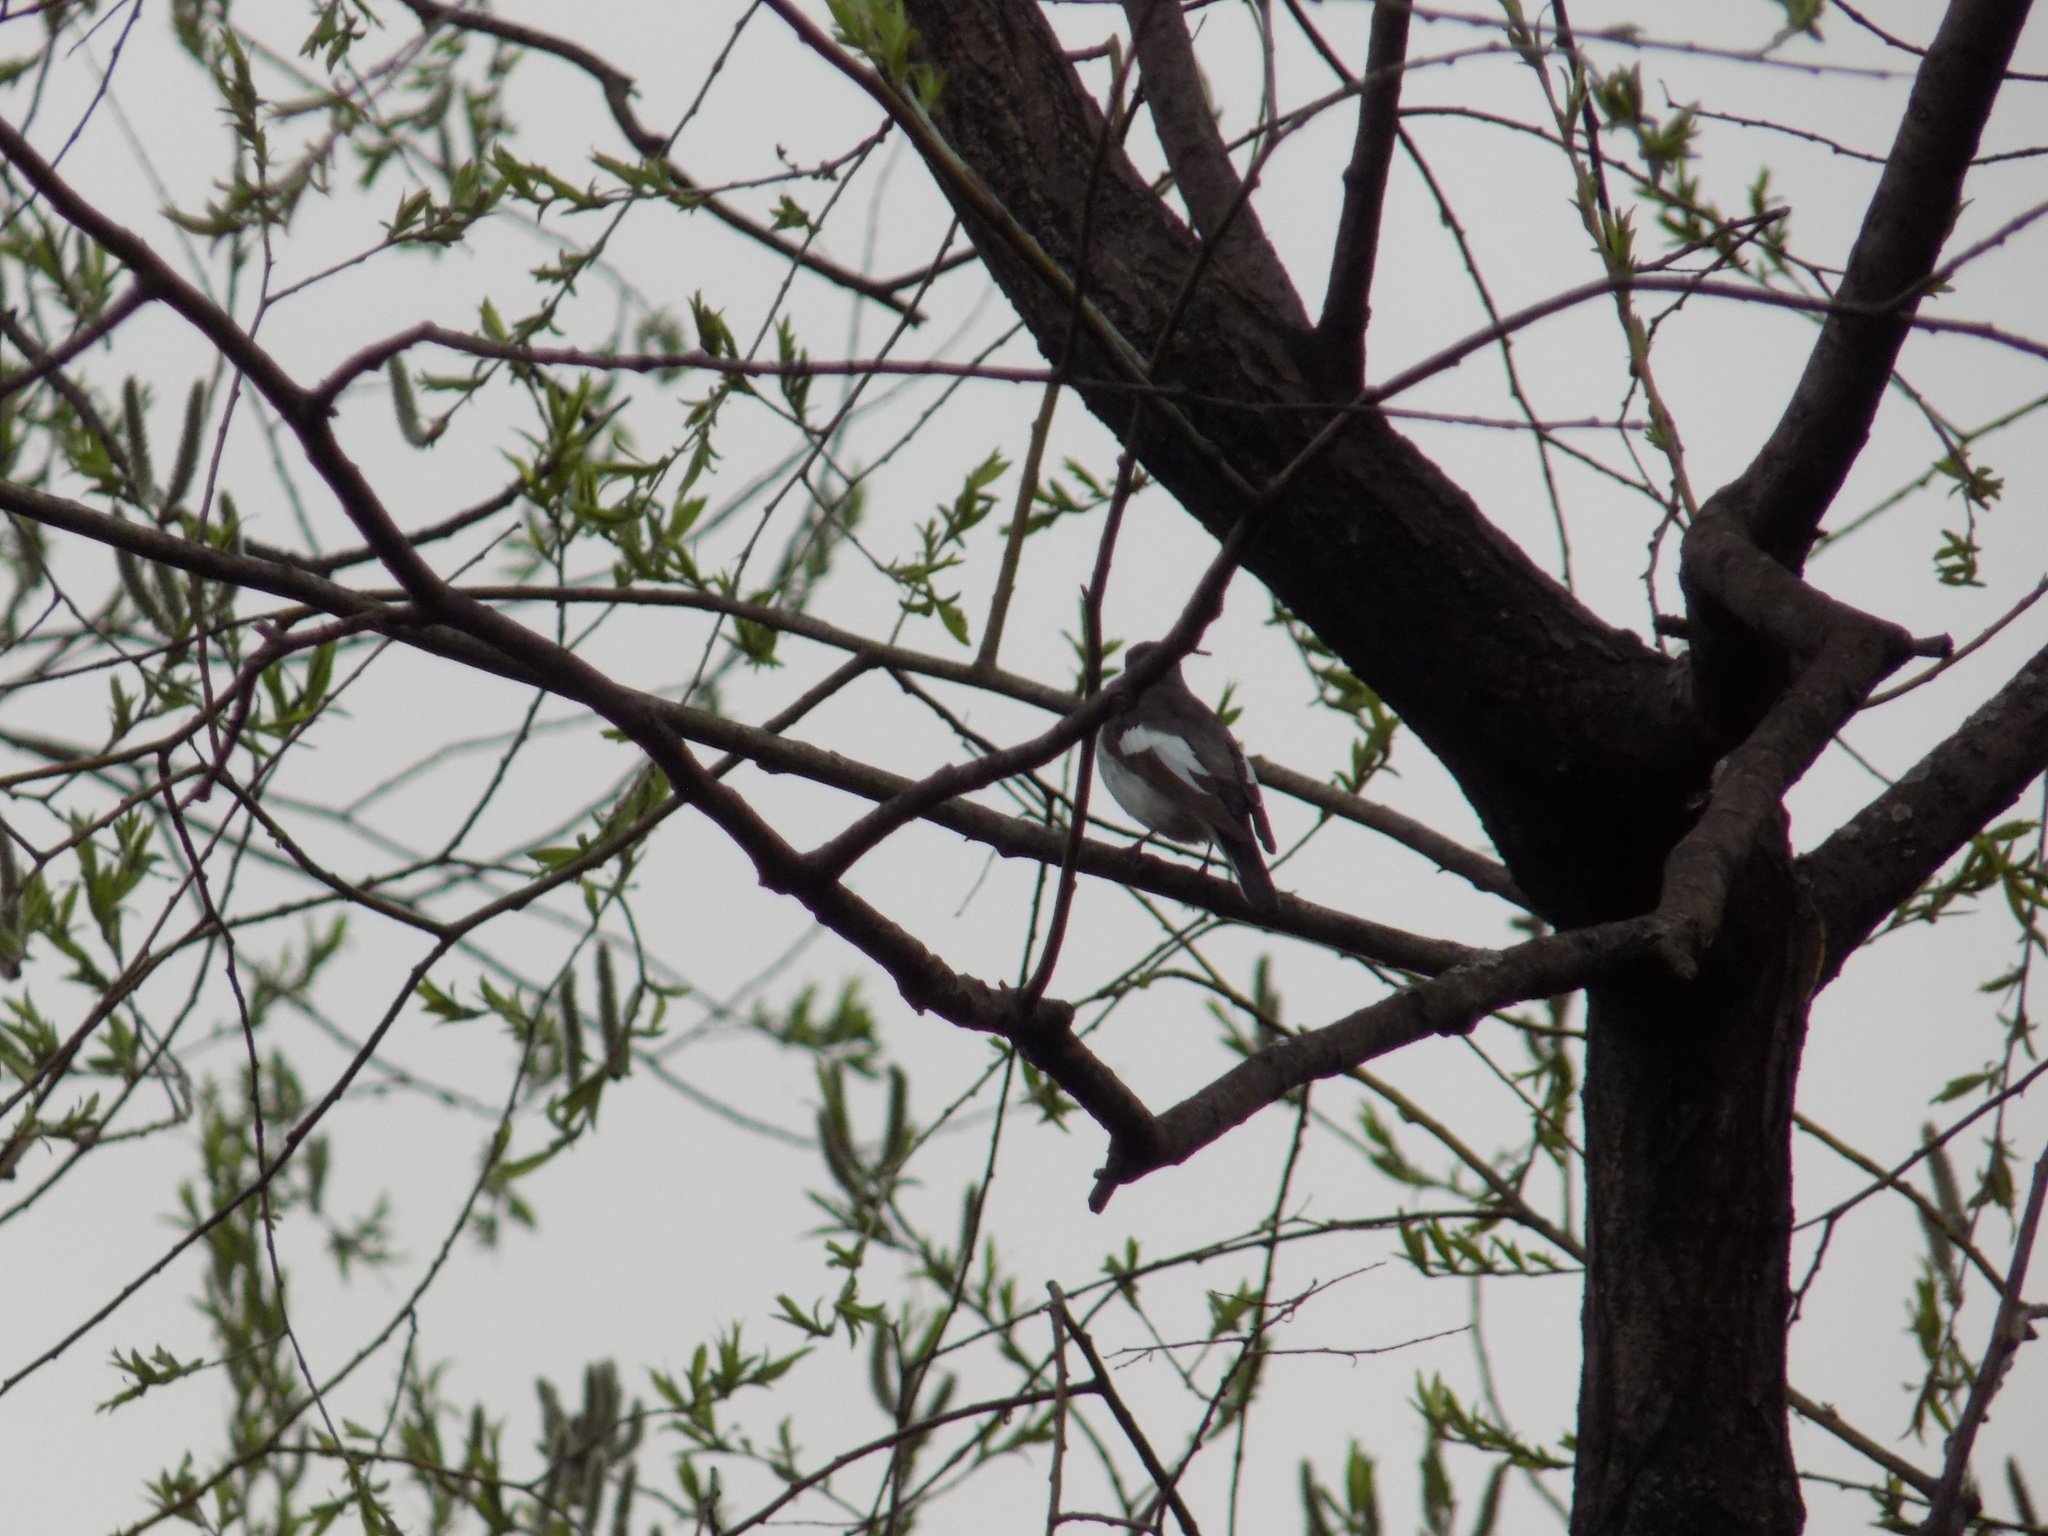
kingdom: Animalia
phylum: Chordata
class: Aves
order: Passeriformes
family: Muscicapidae
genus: Ficedula
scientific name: Ficedula hypoleuca
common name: European pied flycatcher
